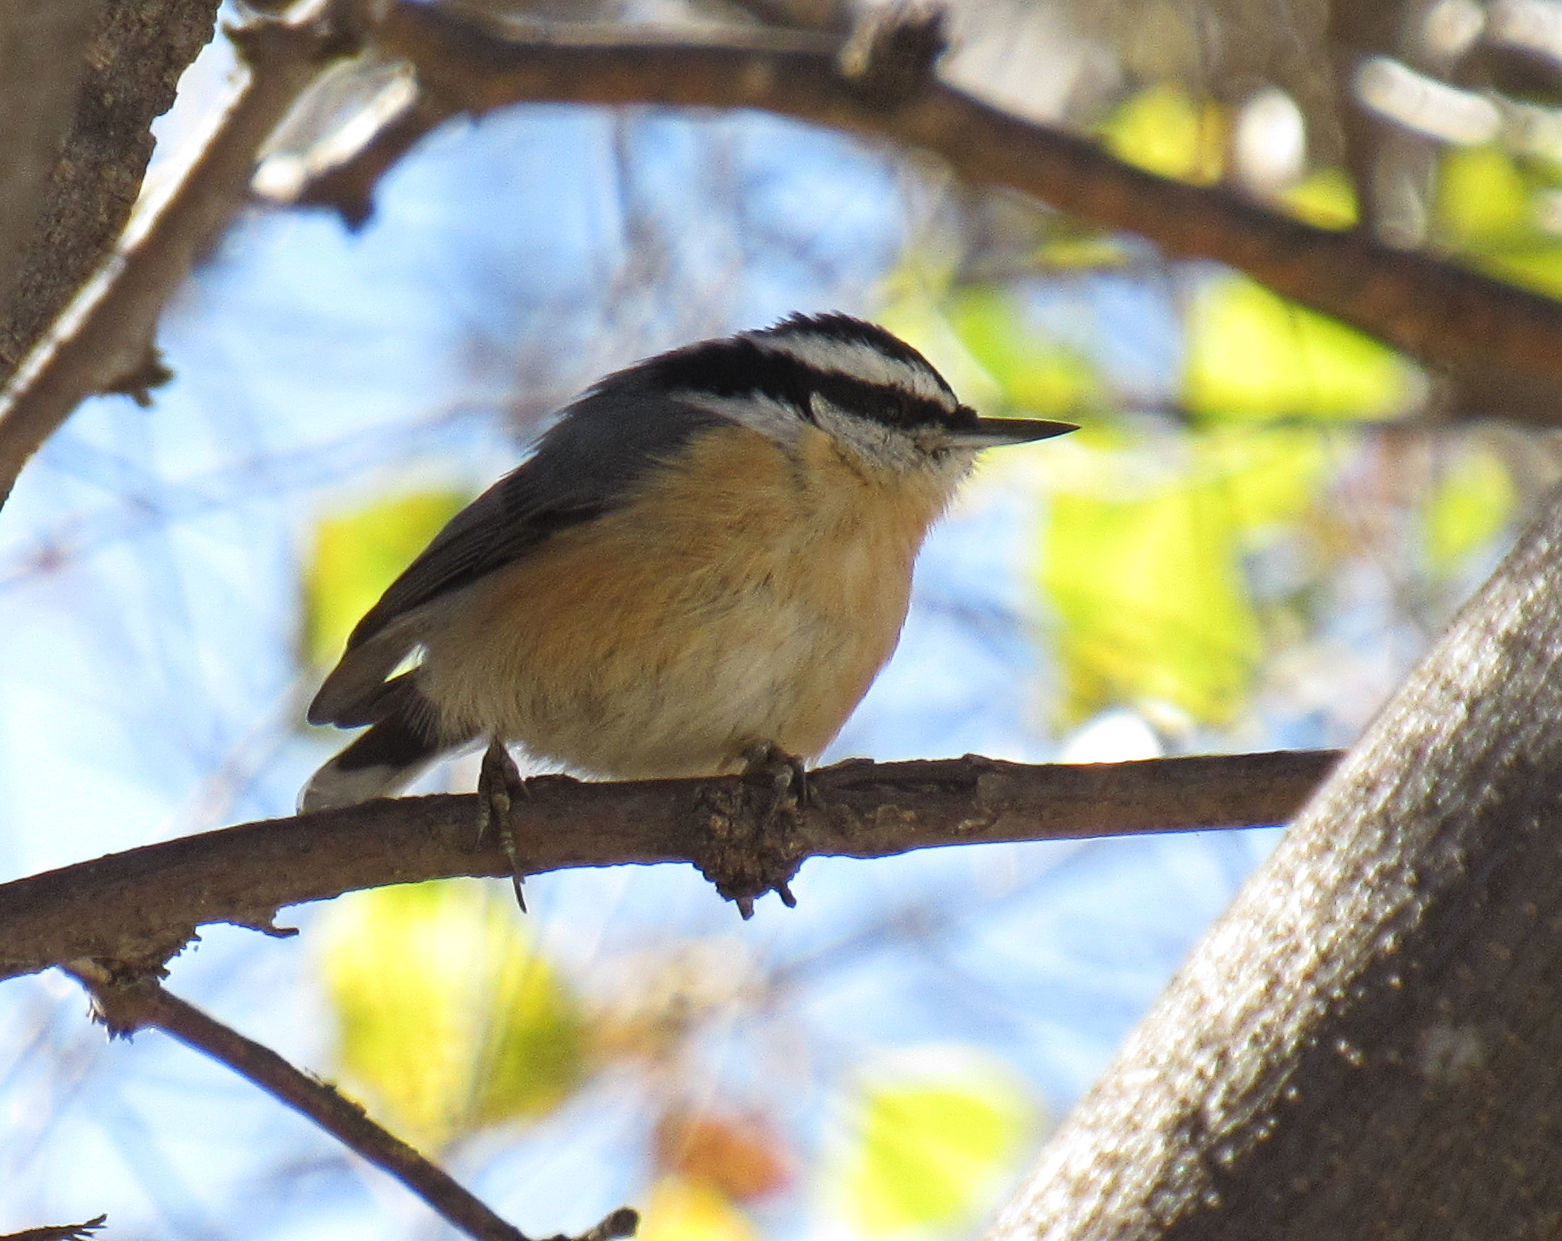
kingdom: Animalia
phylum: Chordata
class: Aves
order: Passeriformes
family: Sittidae
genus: Sitta
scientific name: Sitta canadensis
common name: Red-breasted nuthatch
